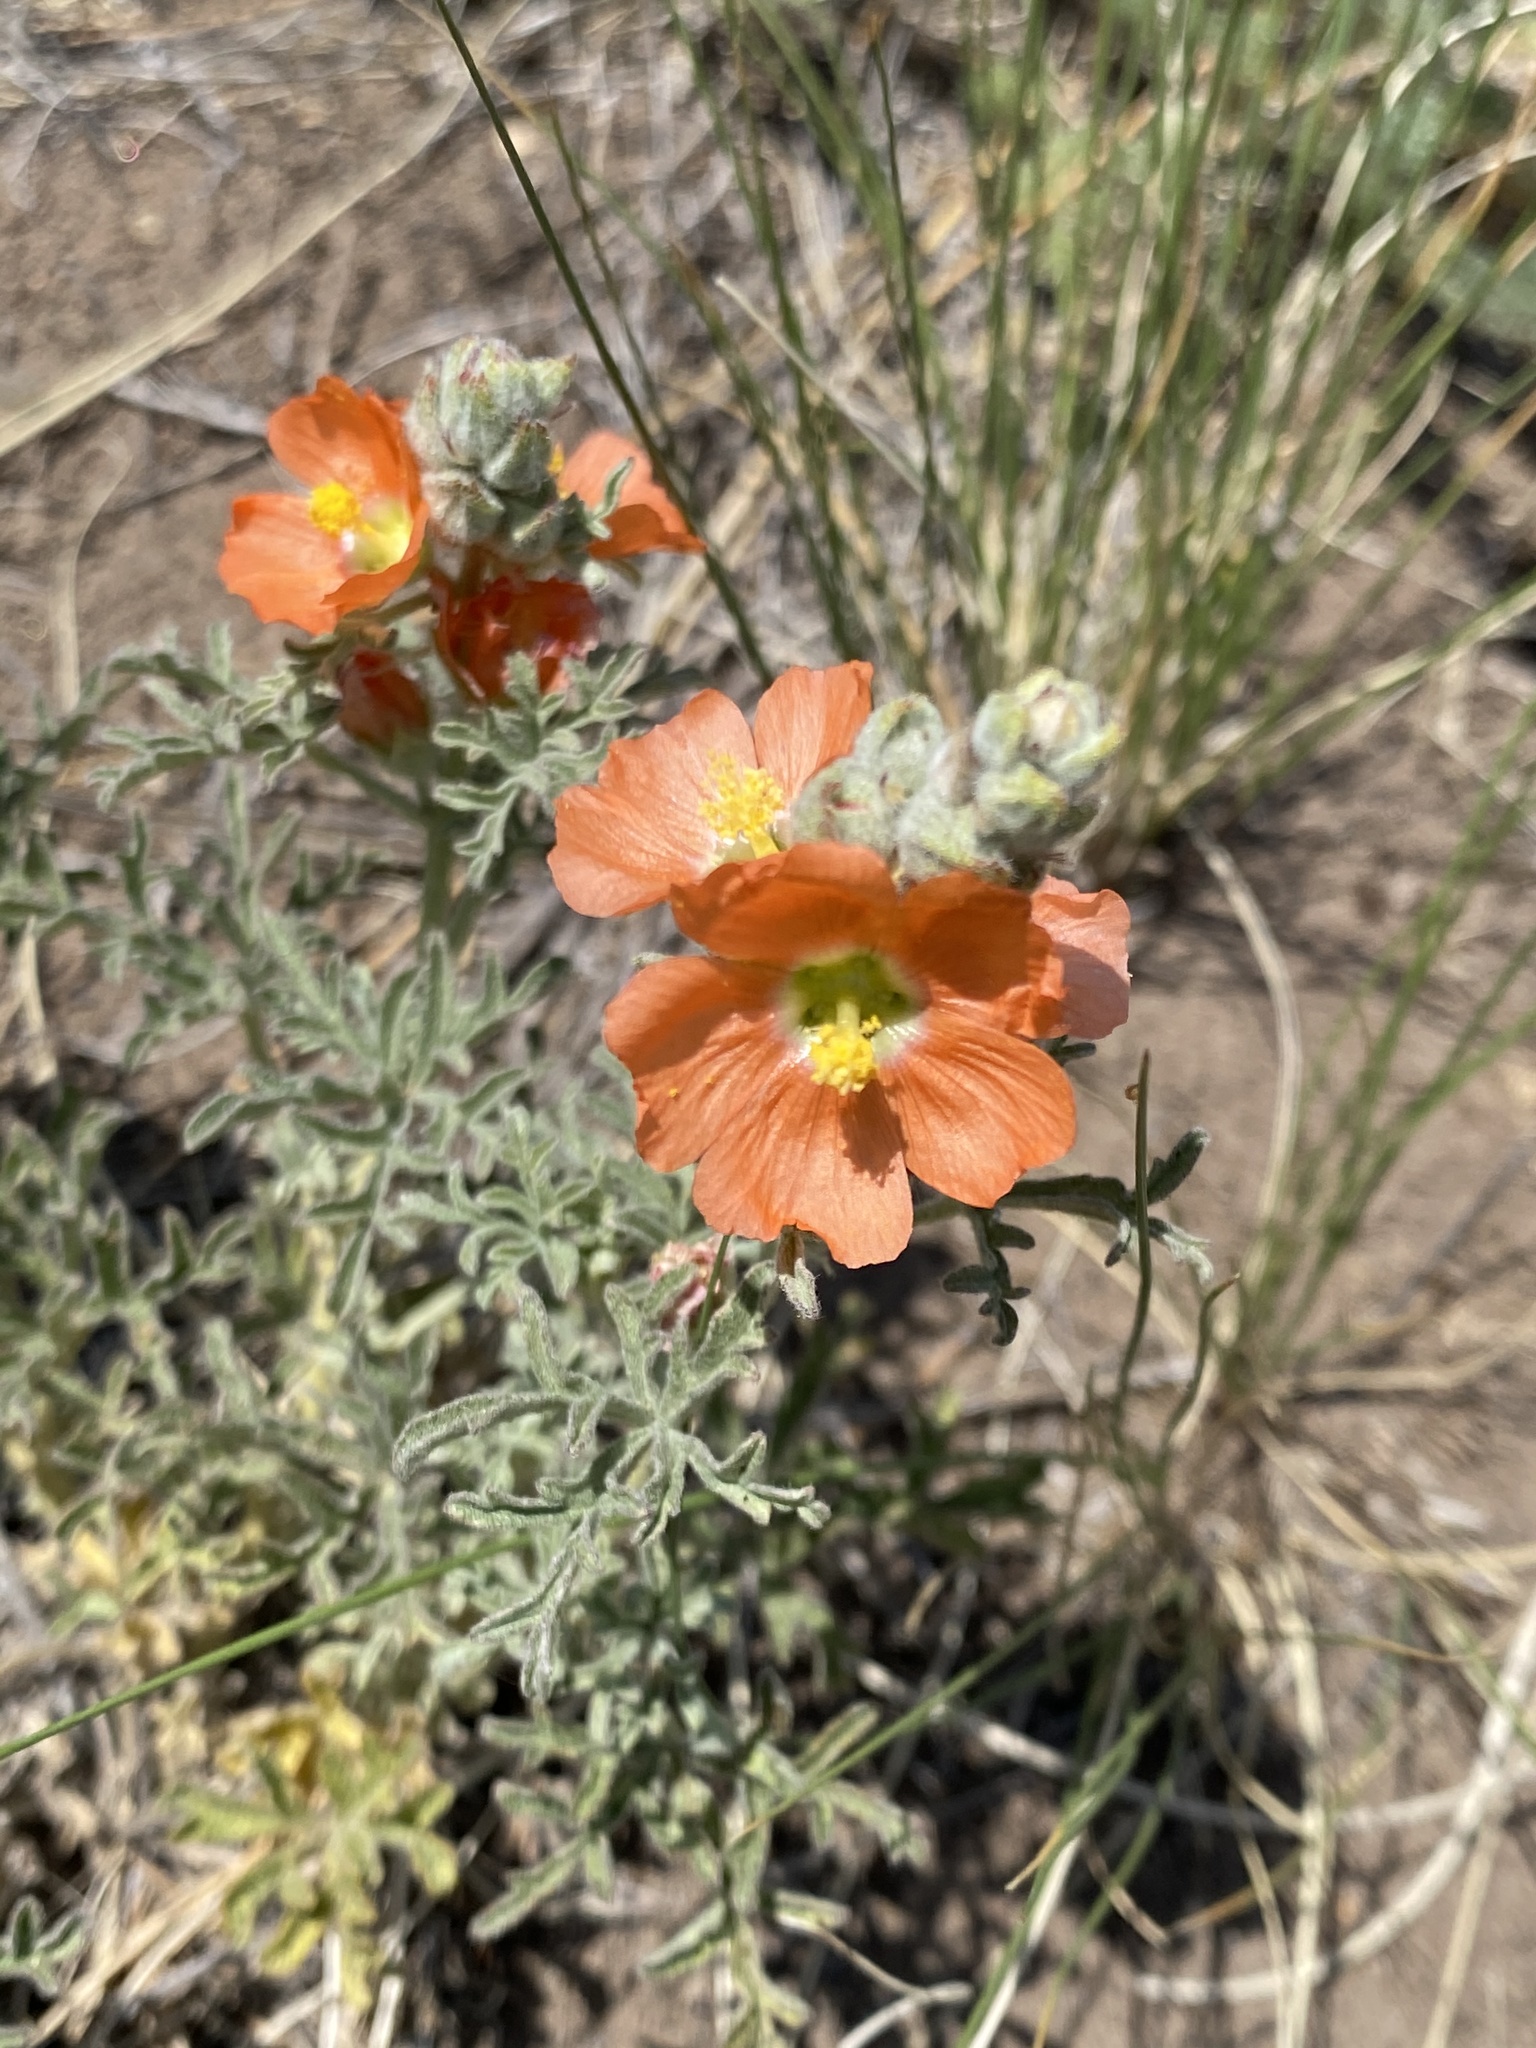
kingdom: Plantae
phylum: Tracheophyta
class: Magnoliopsida
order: Malvales
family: Malvaceae
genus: Sphaeralcea
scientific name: Sphaeralcea coccinea
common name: Moss-rose
